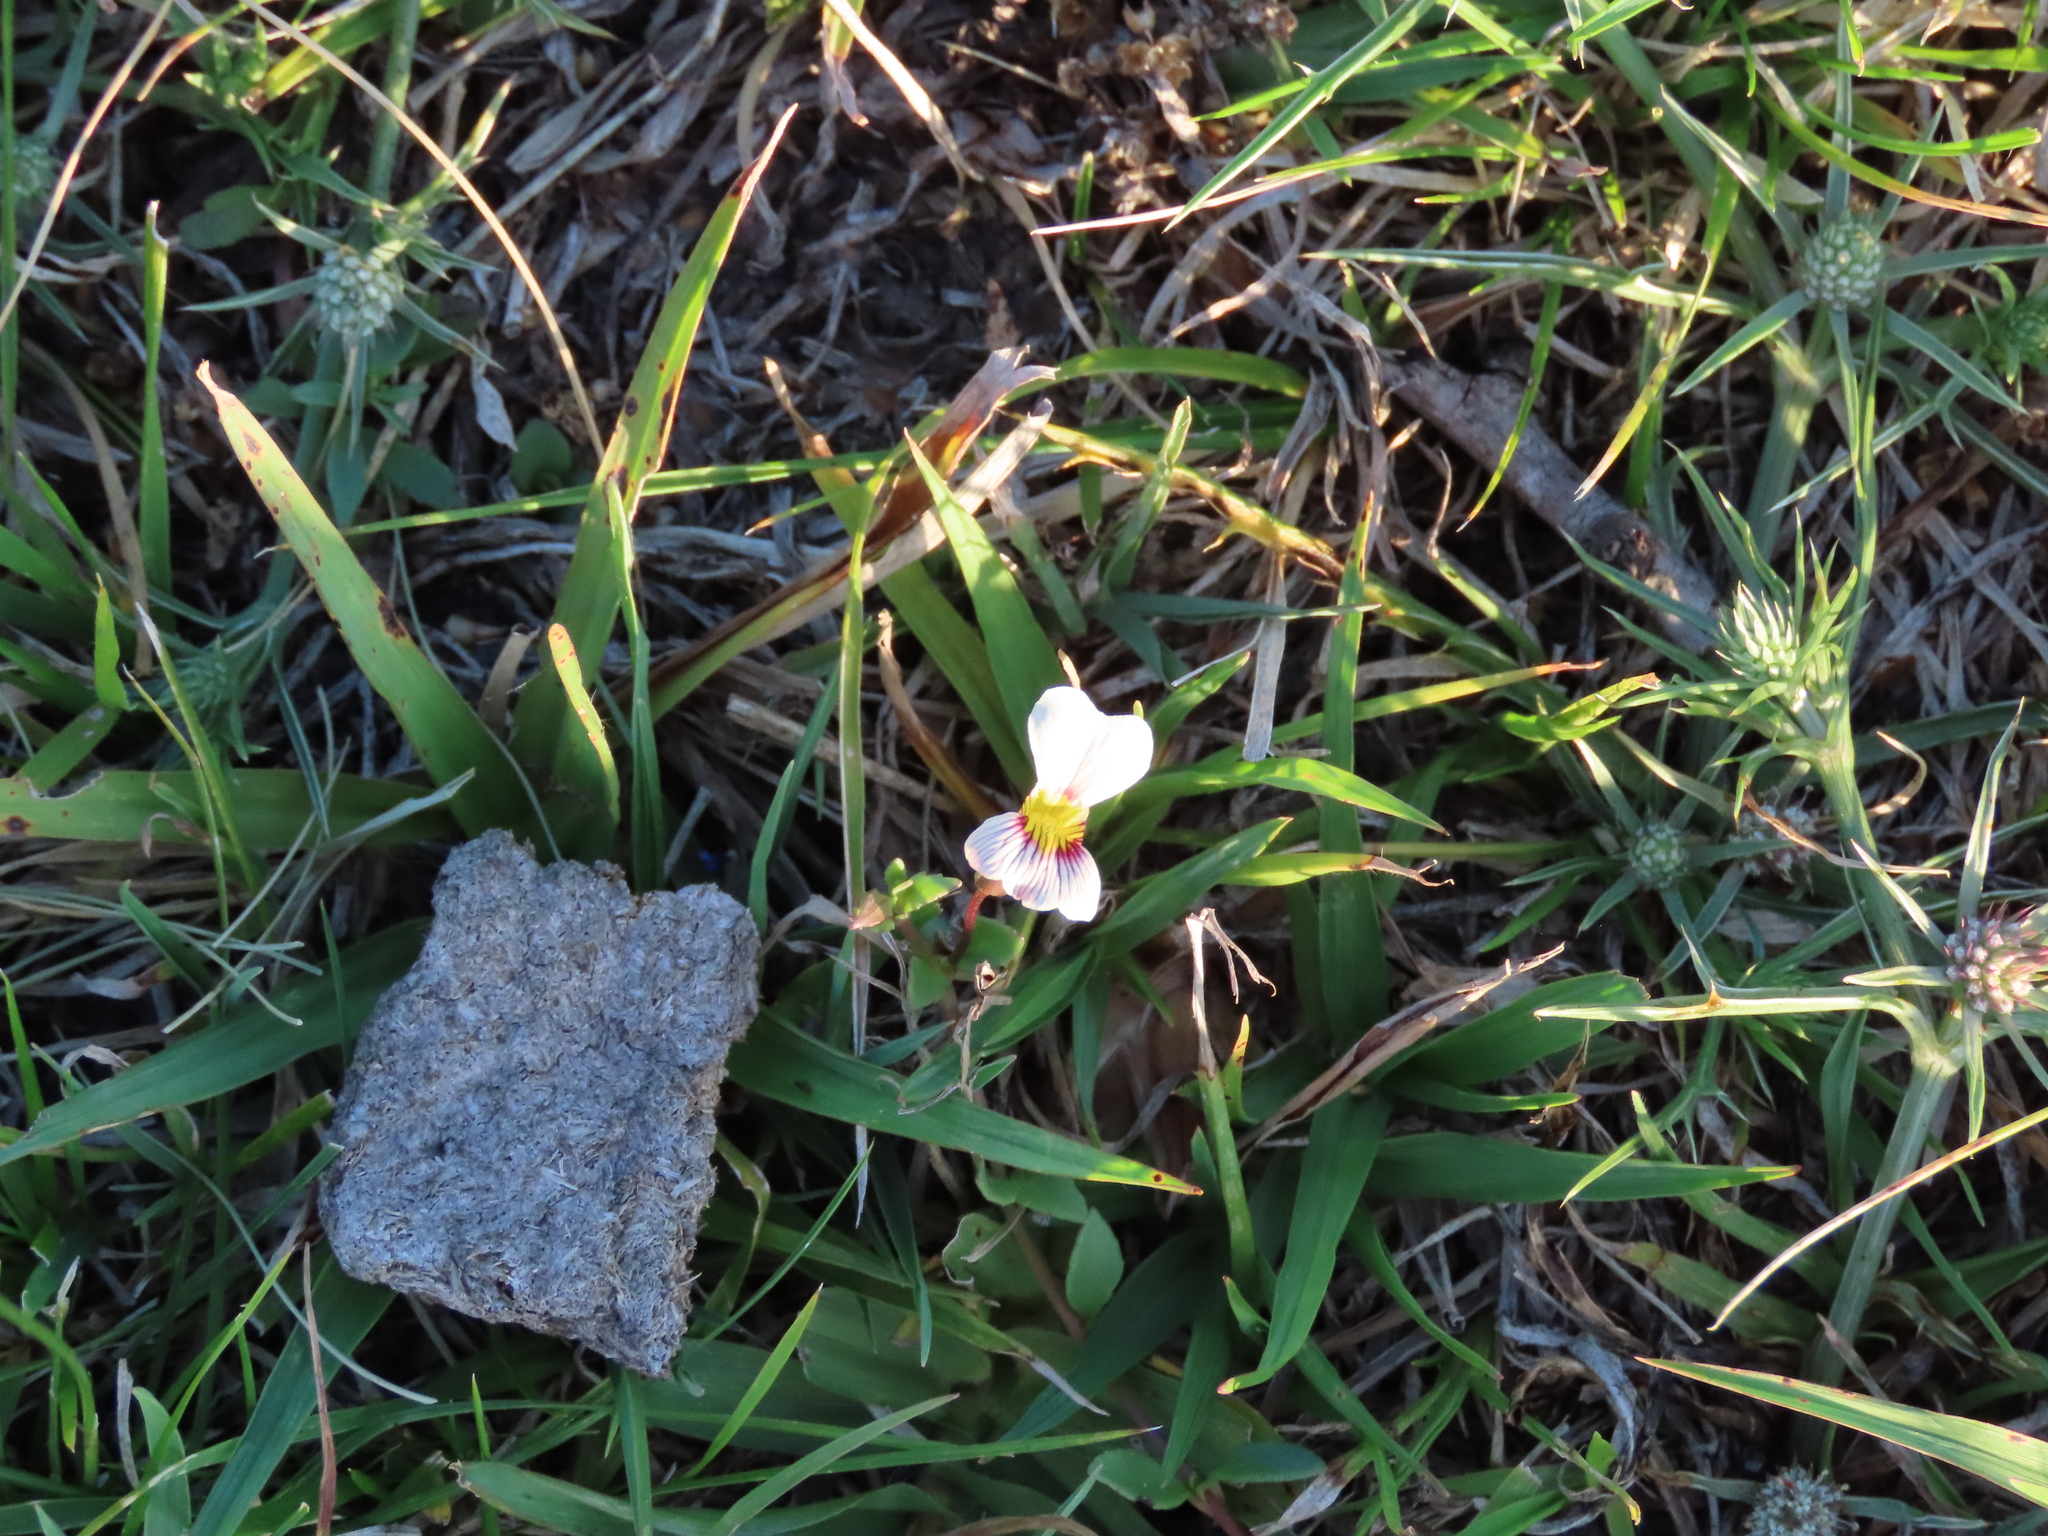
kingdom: Plantae
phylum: Tracheophyta
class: Magnoliopsida
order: Lamiales
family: Plantaginaceae
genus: Mecardonia
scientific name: Mecardonia procumbens
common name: Baby jump-up
